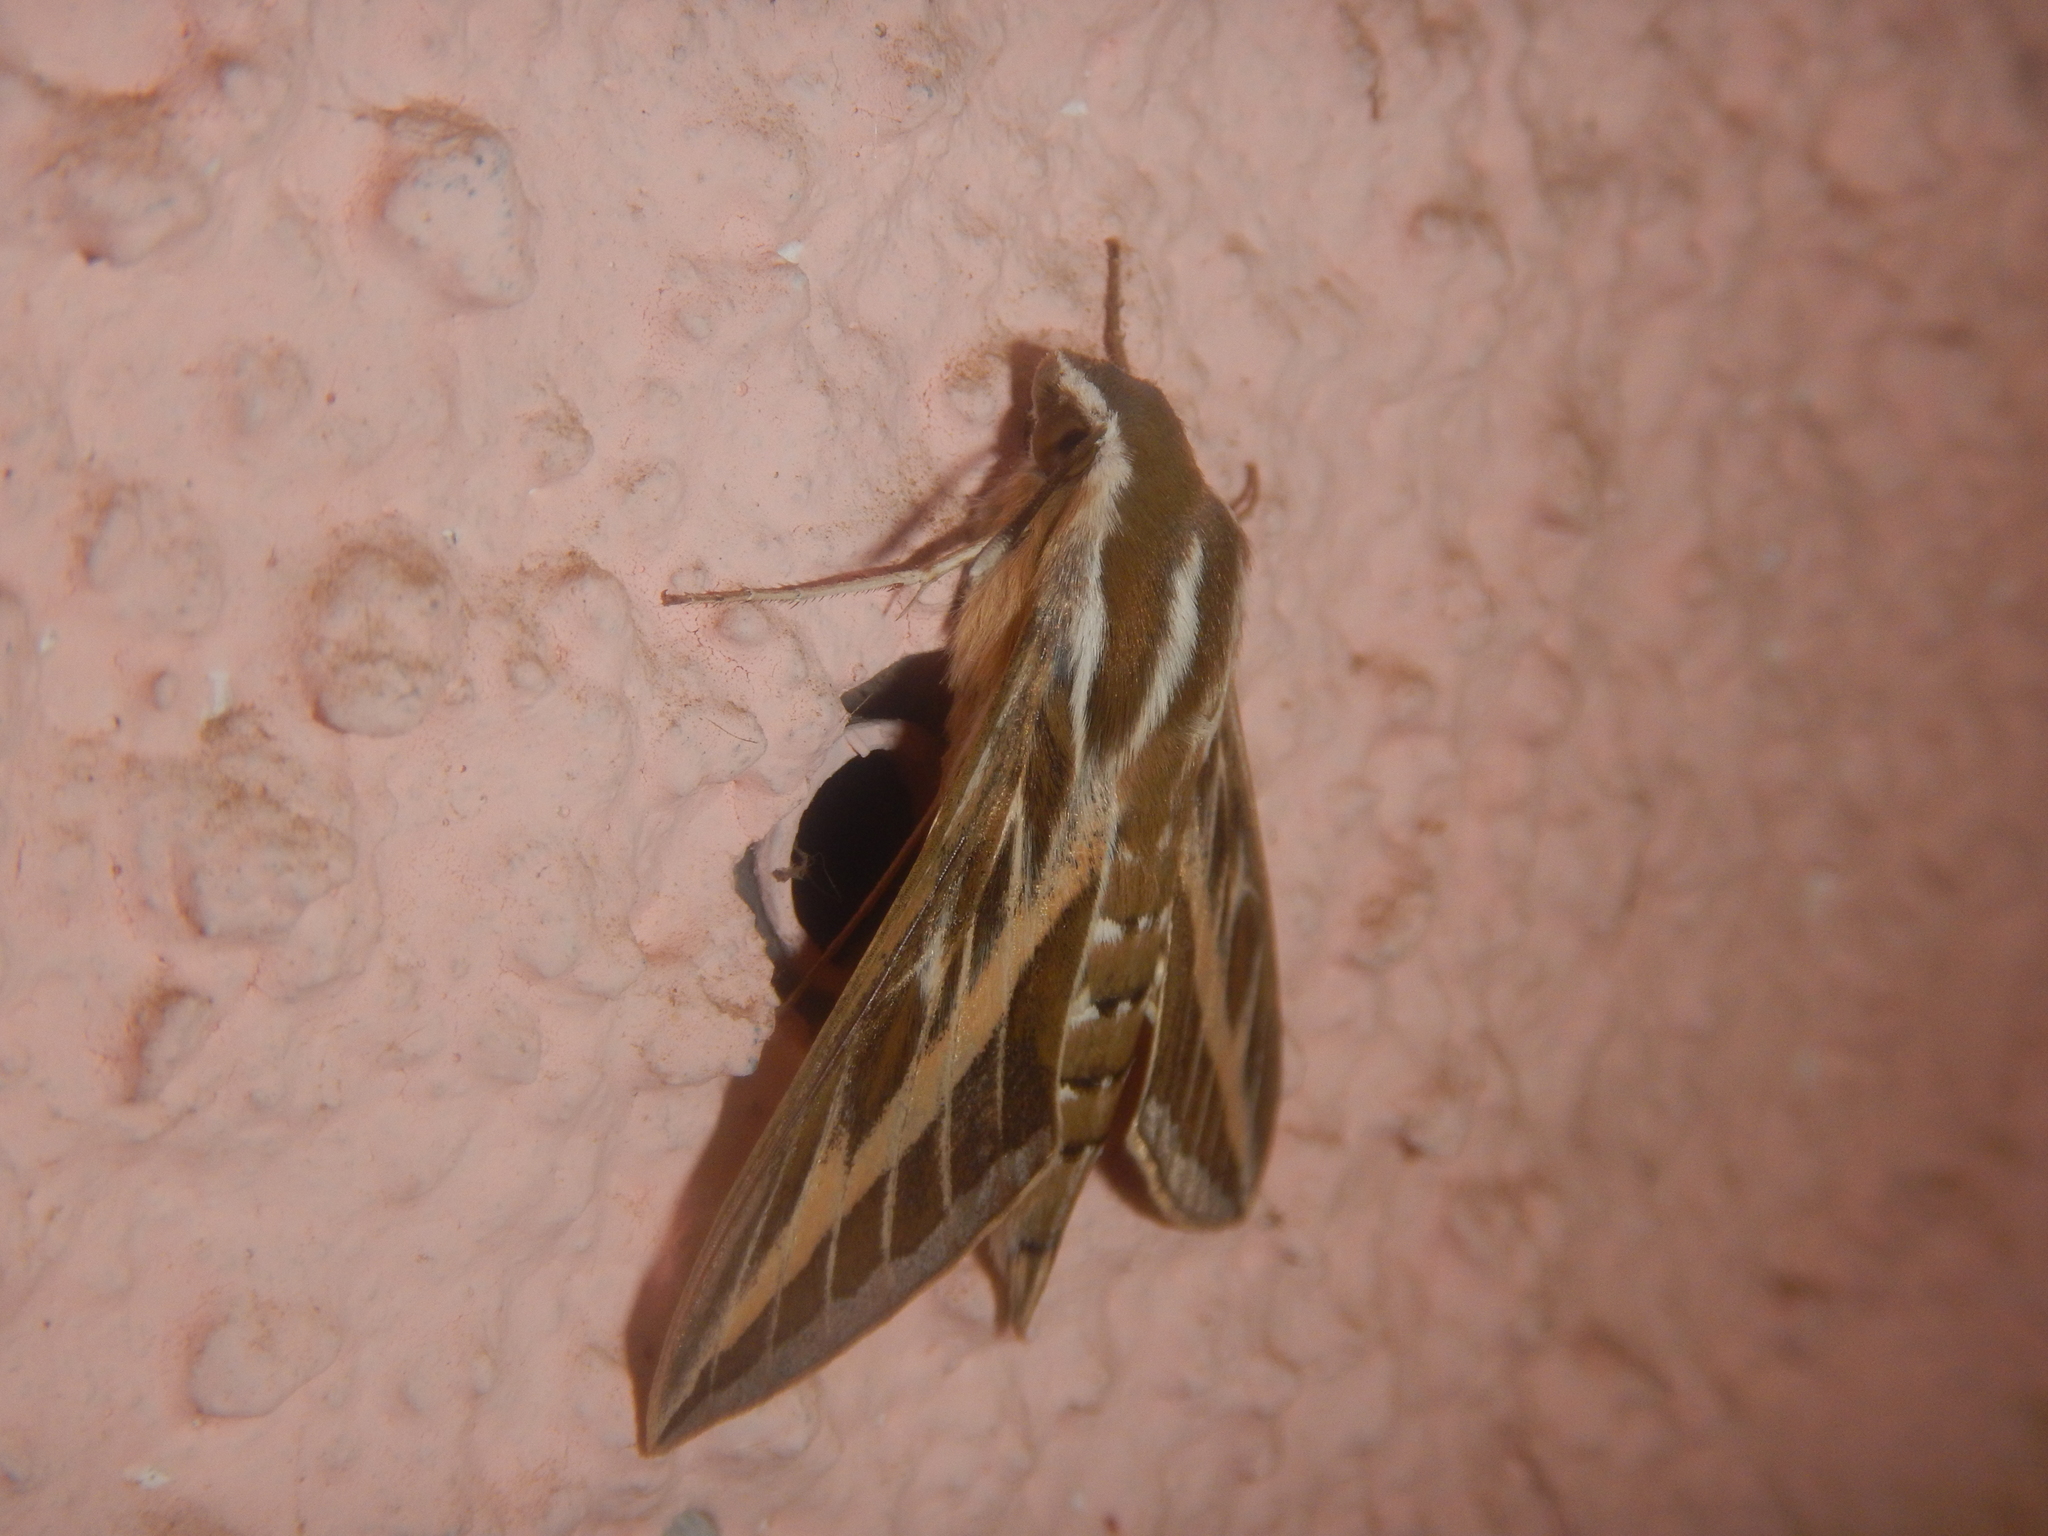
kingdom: Animalia
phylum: Arthropoda
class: Insecta
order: Lepidoptera
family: Sphingidae
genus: Hyles
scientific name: Hyles livornica
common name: Striped hawk-moth
